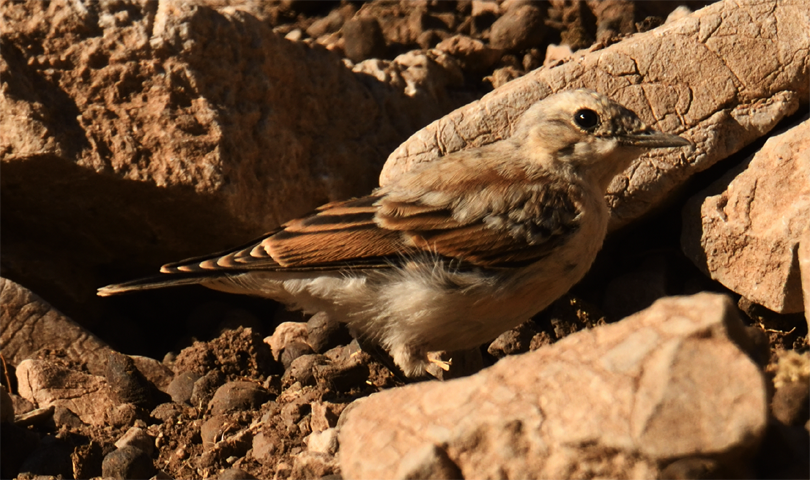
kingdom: Animalia
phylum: Chordata
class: Aves
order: Passeriformes
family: Muscicapidae
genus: Oenanthe
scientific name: Oenanthe oenanthe
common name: Northern wheatear
